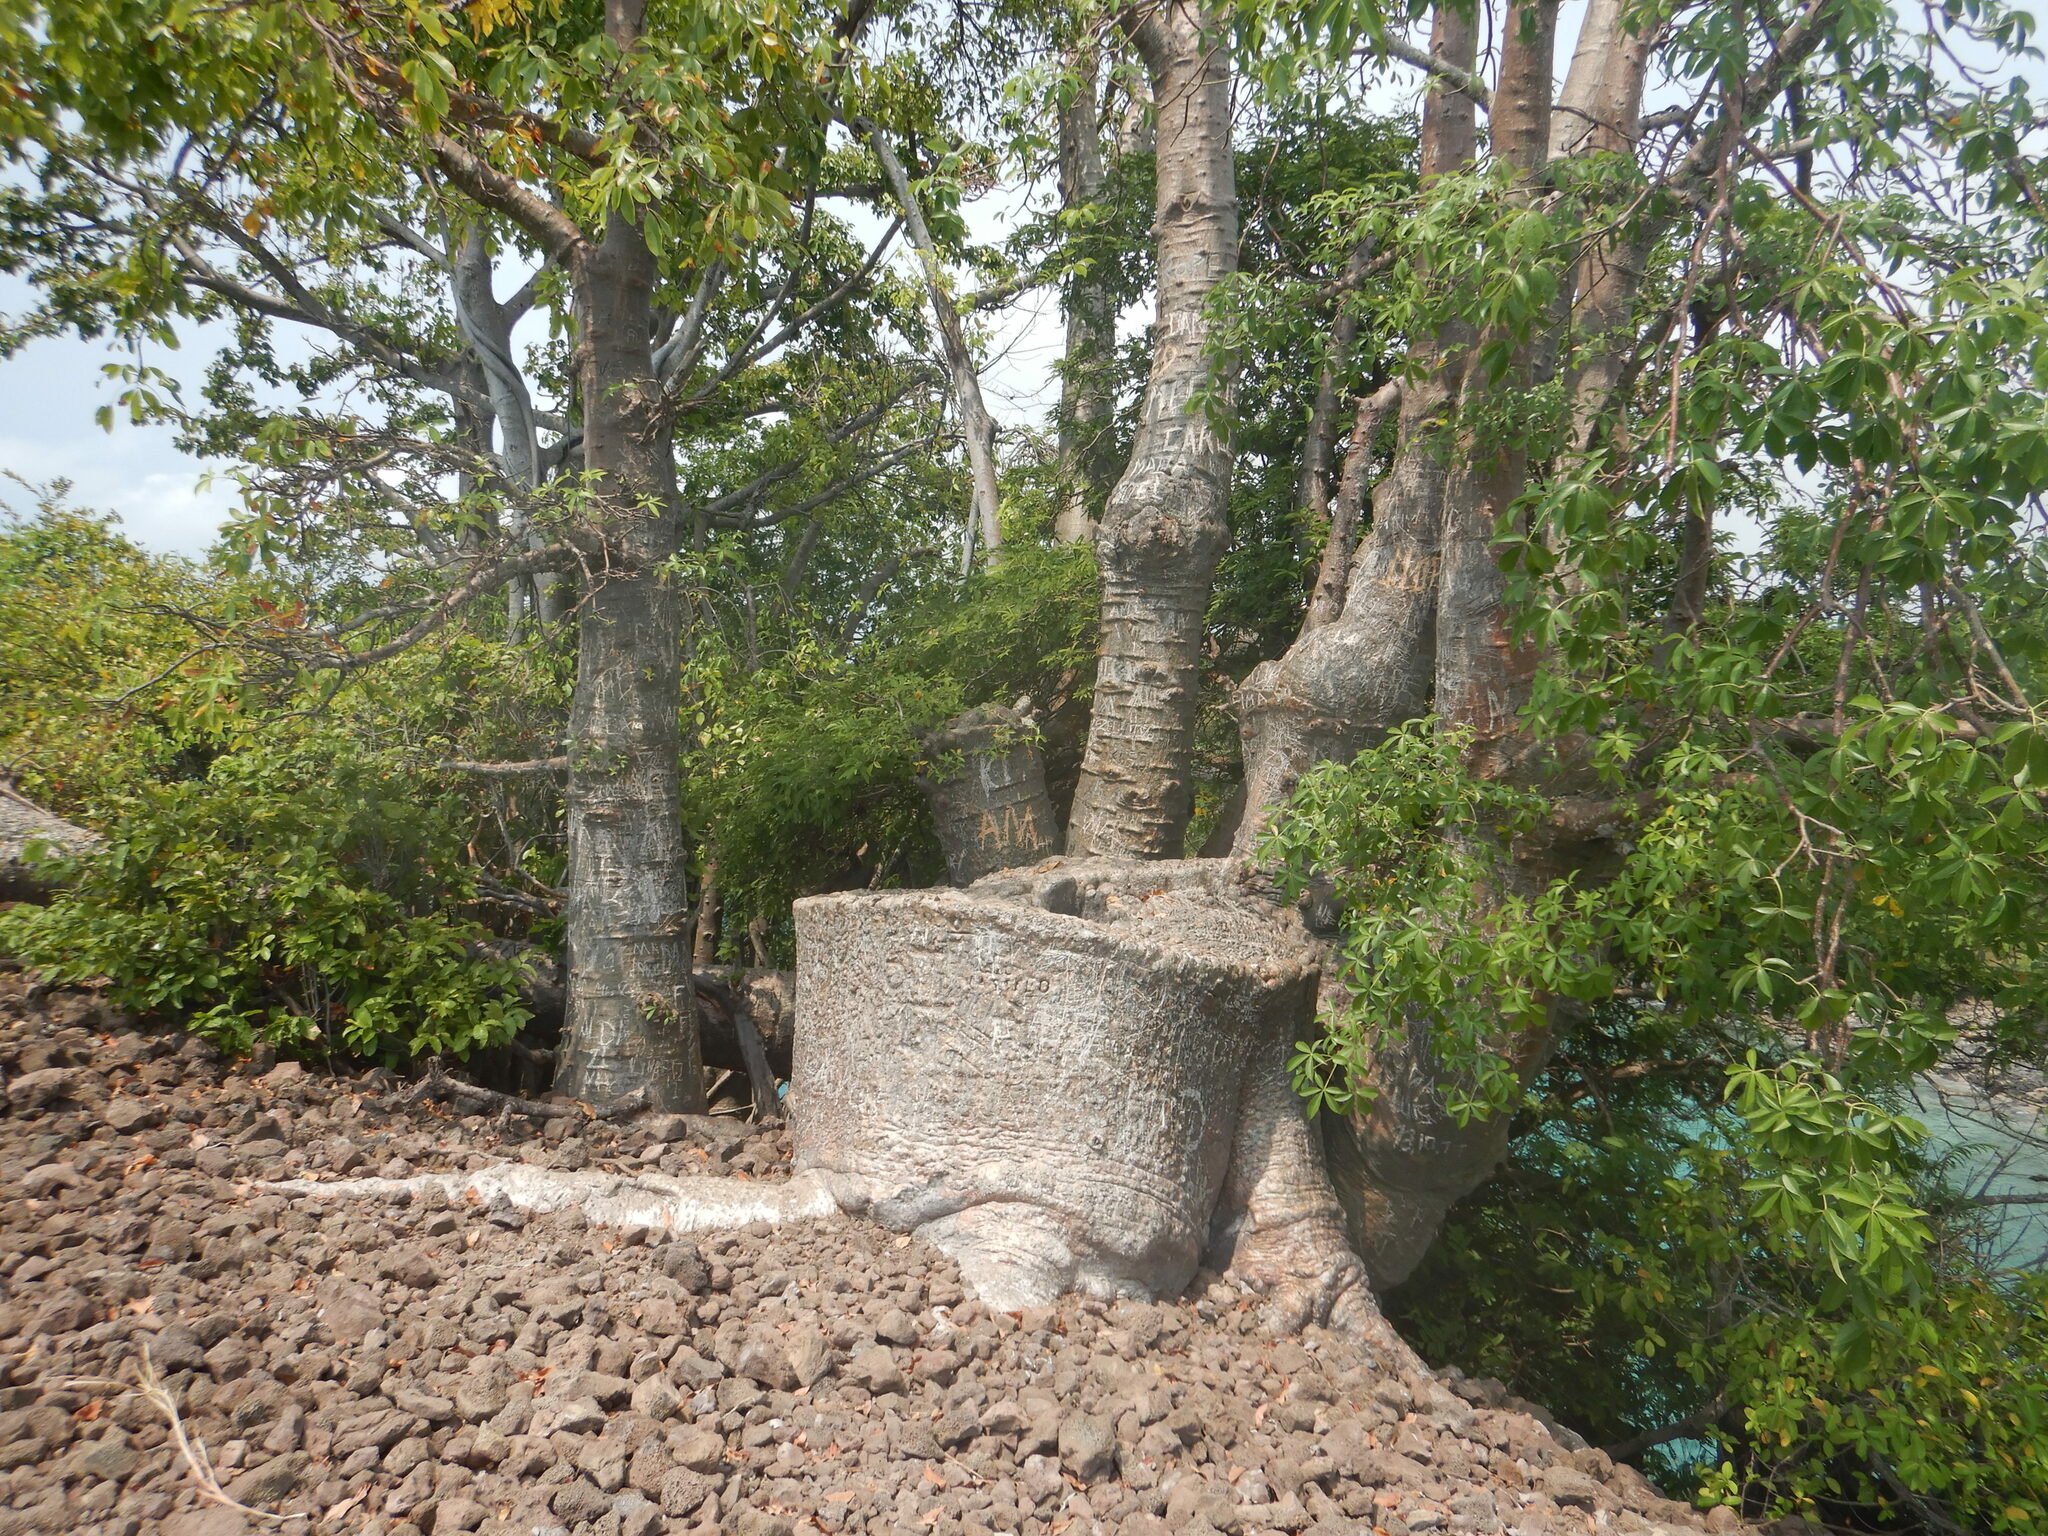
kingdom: Plantae
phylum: Tracheophyta
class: Magnoliopsida
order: Malvales
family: Malvaceae
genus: Adansonia
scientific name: Adansonia digitata
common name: Dead-rat-tree
